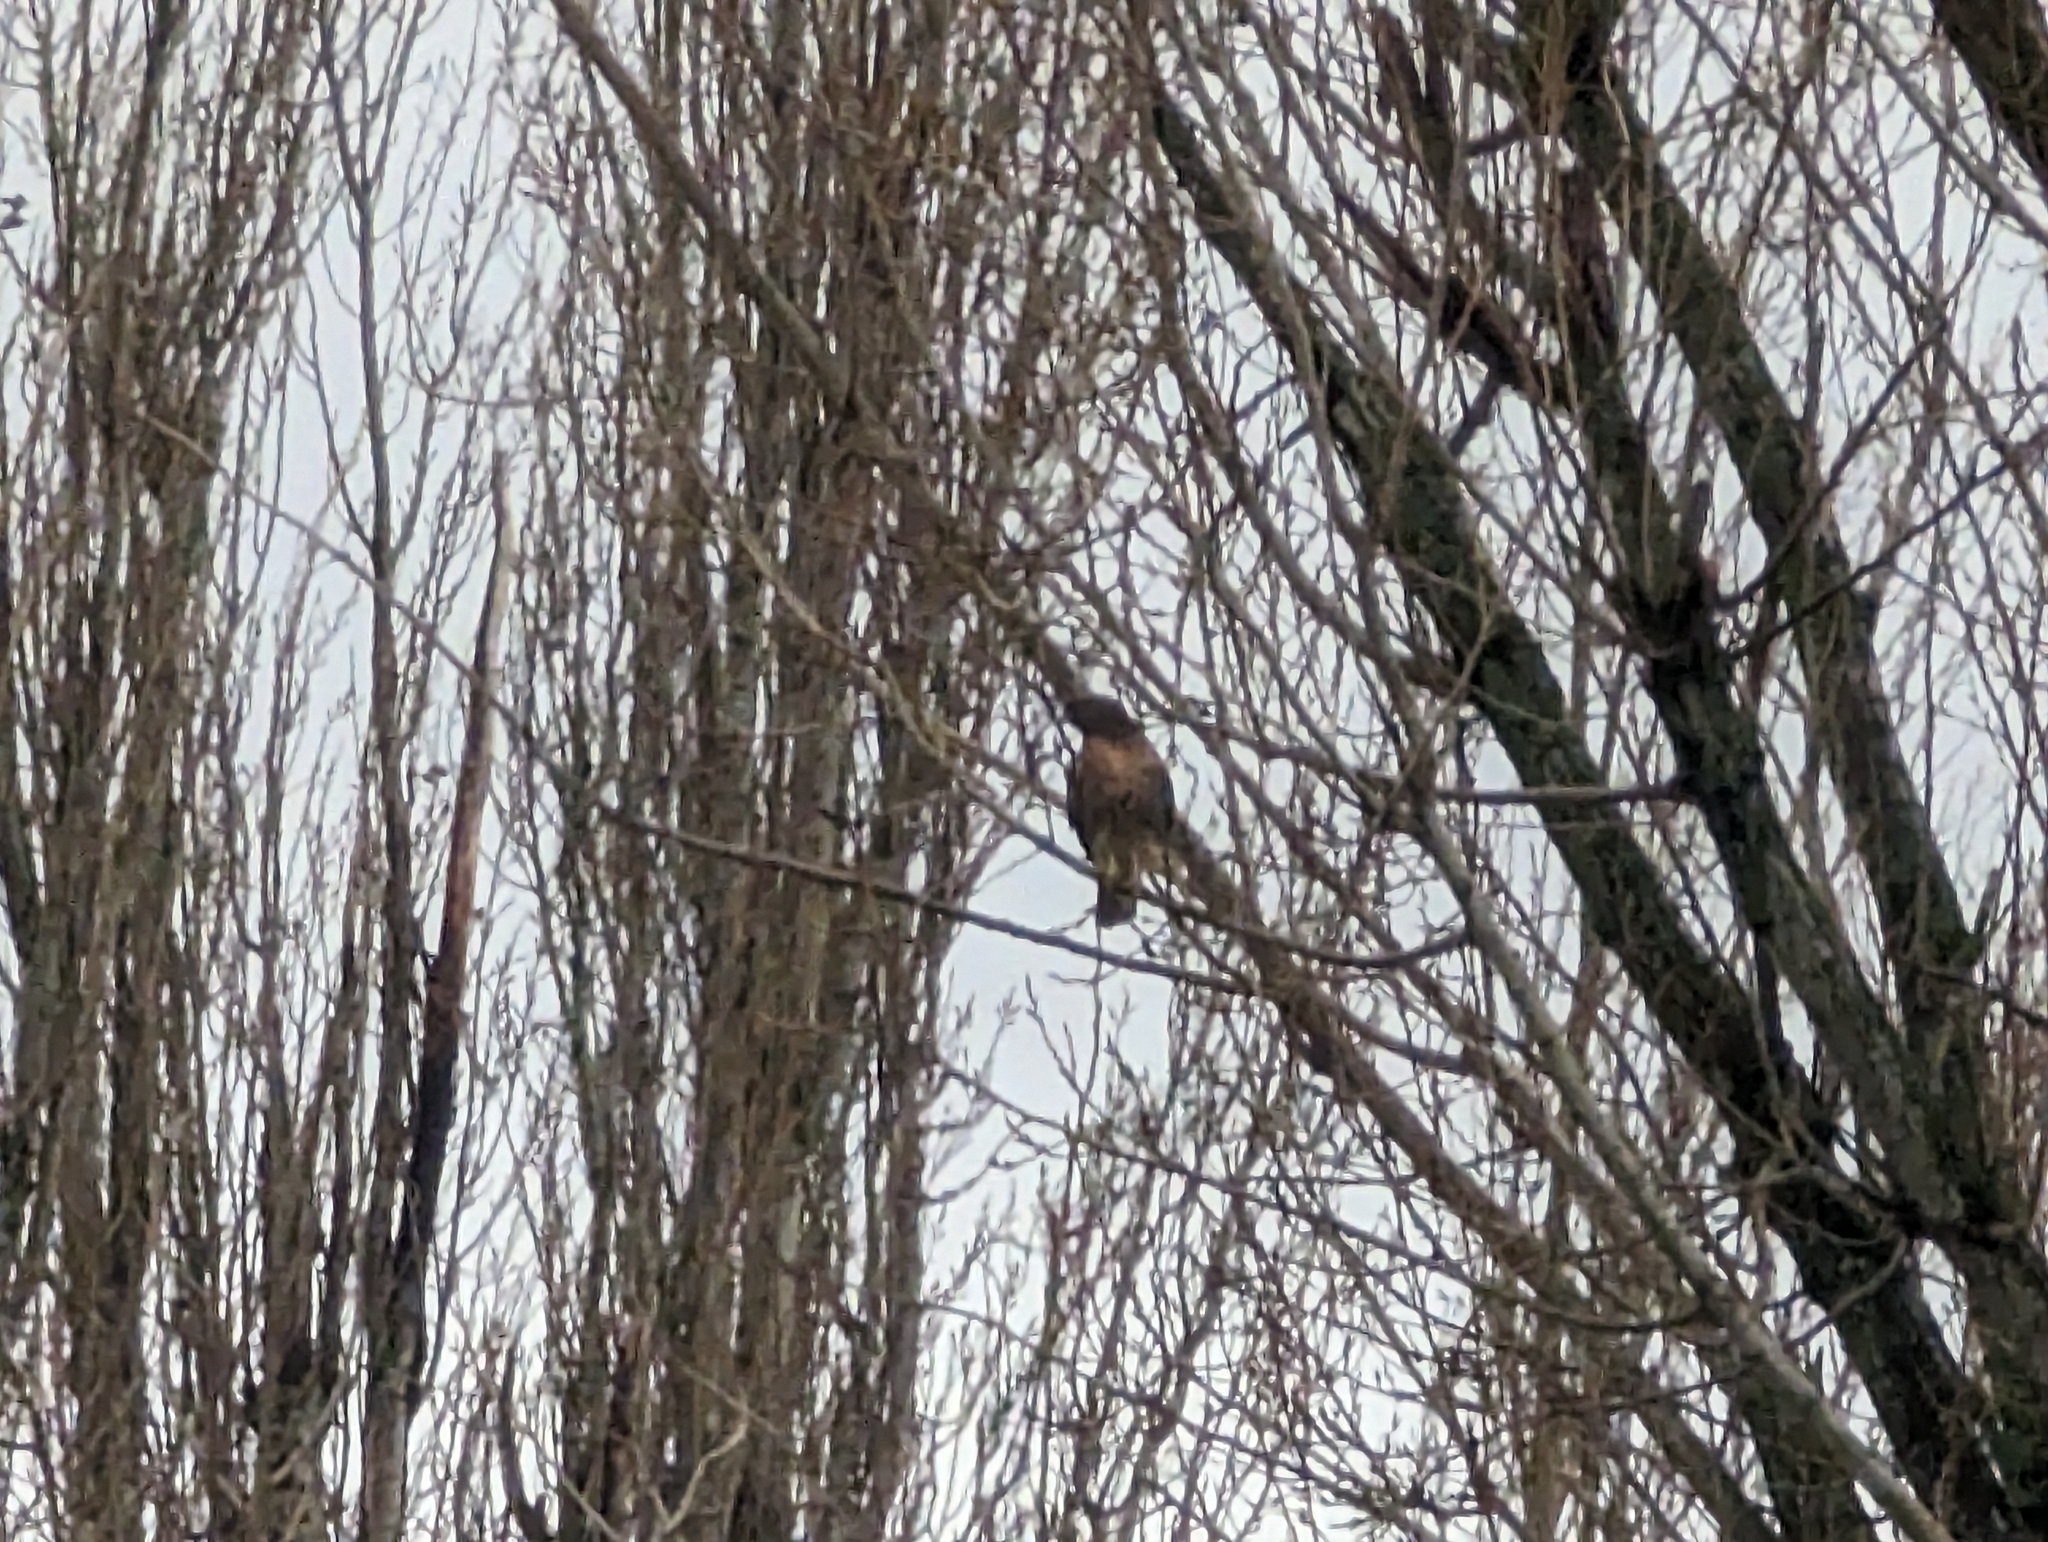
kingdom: Animalia
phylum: Chordata
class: Aves
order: Accipitriformes
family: Accipitridae
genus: Buteo
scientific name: Buteo jamaicensis
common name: Red-tailed hawk
